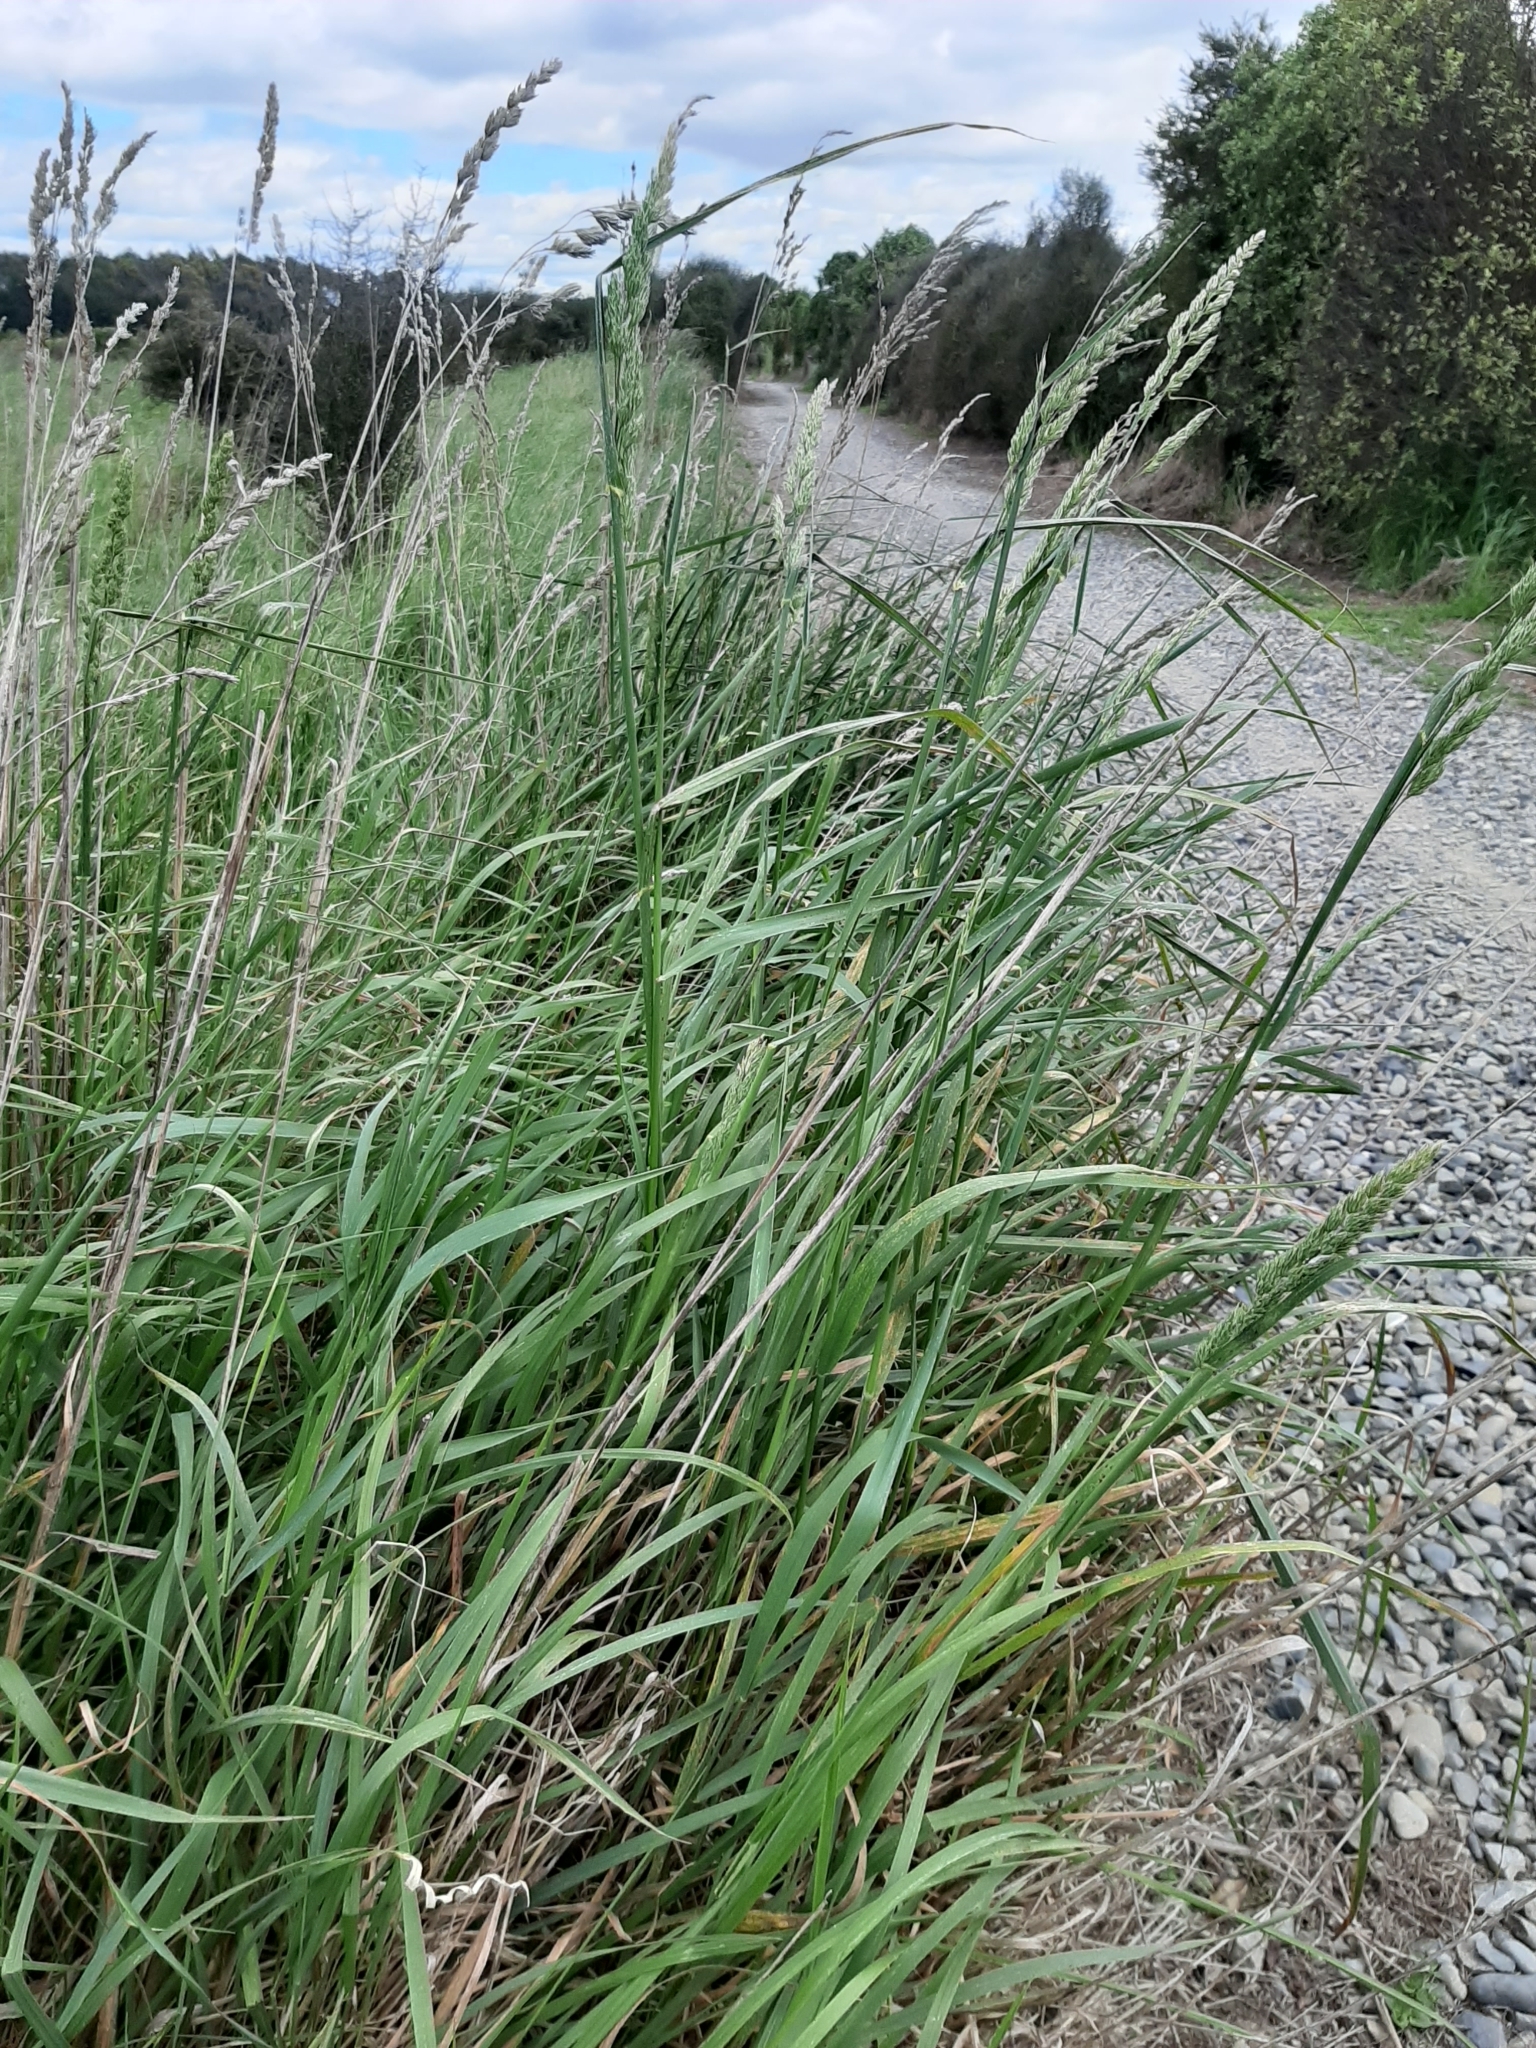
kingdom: Plantae
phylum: Tracheophyta
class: Liliopsida
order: Poales
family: Poaceae
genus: Dactylis
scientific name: Dactylis glomerata
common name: Orchardgrass
